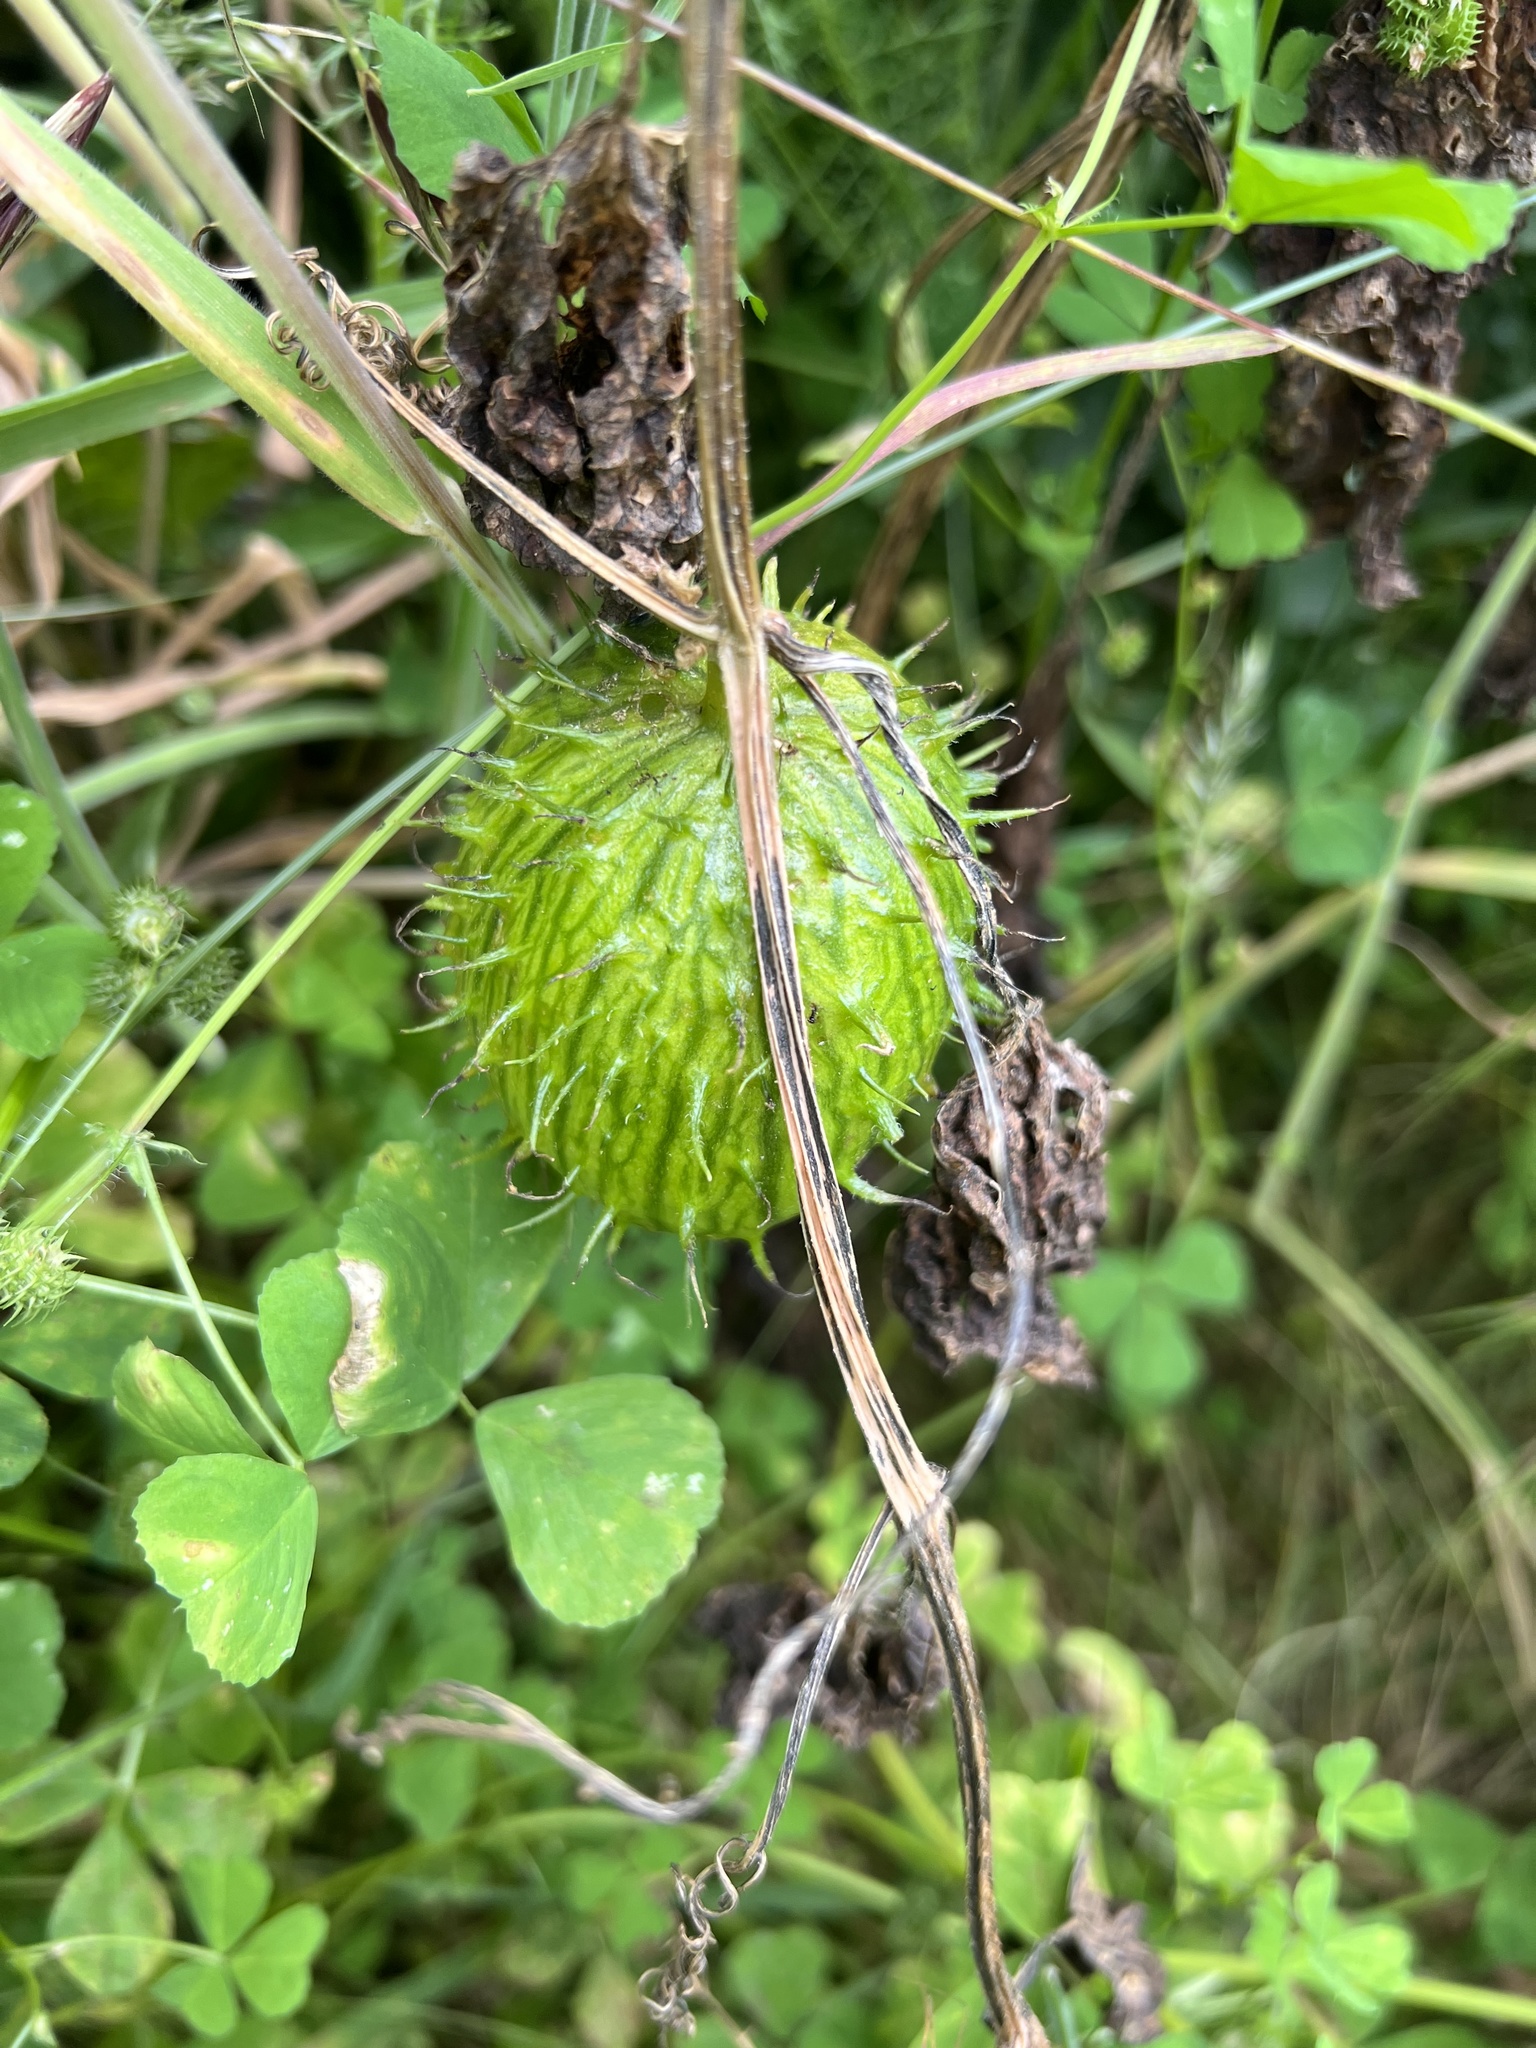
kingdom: Plantae
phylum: Tracheophyta
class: Magnoliopsida
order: Cucurbitales
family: Cucurbitaceae
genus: Marah
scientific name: Marah oregana
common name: Coastal manroot
